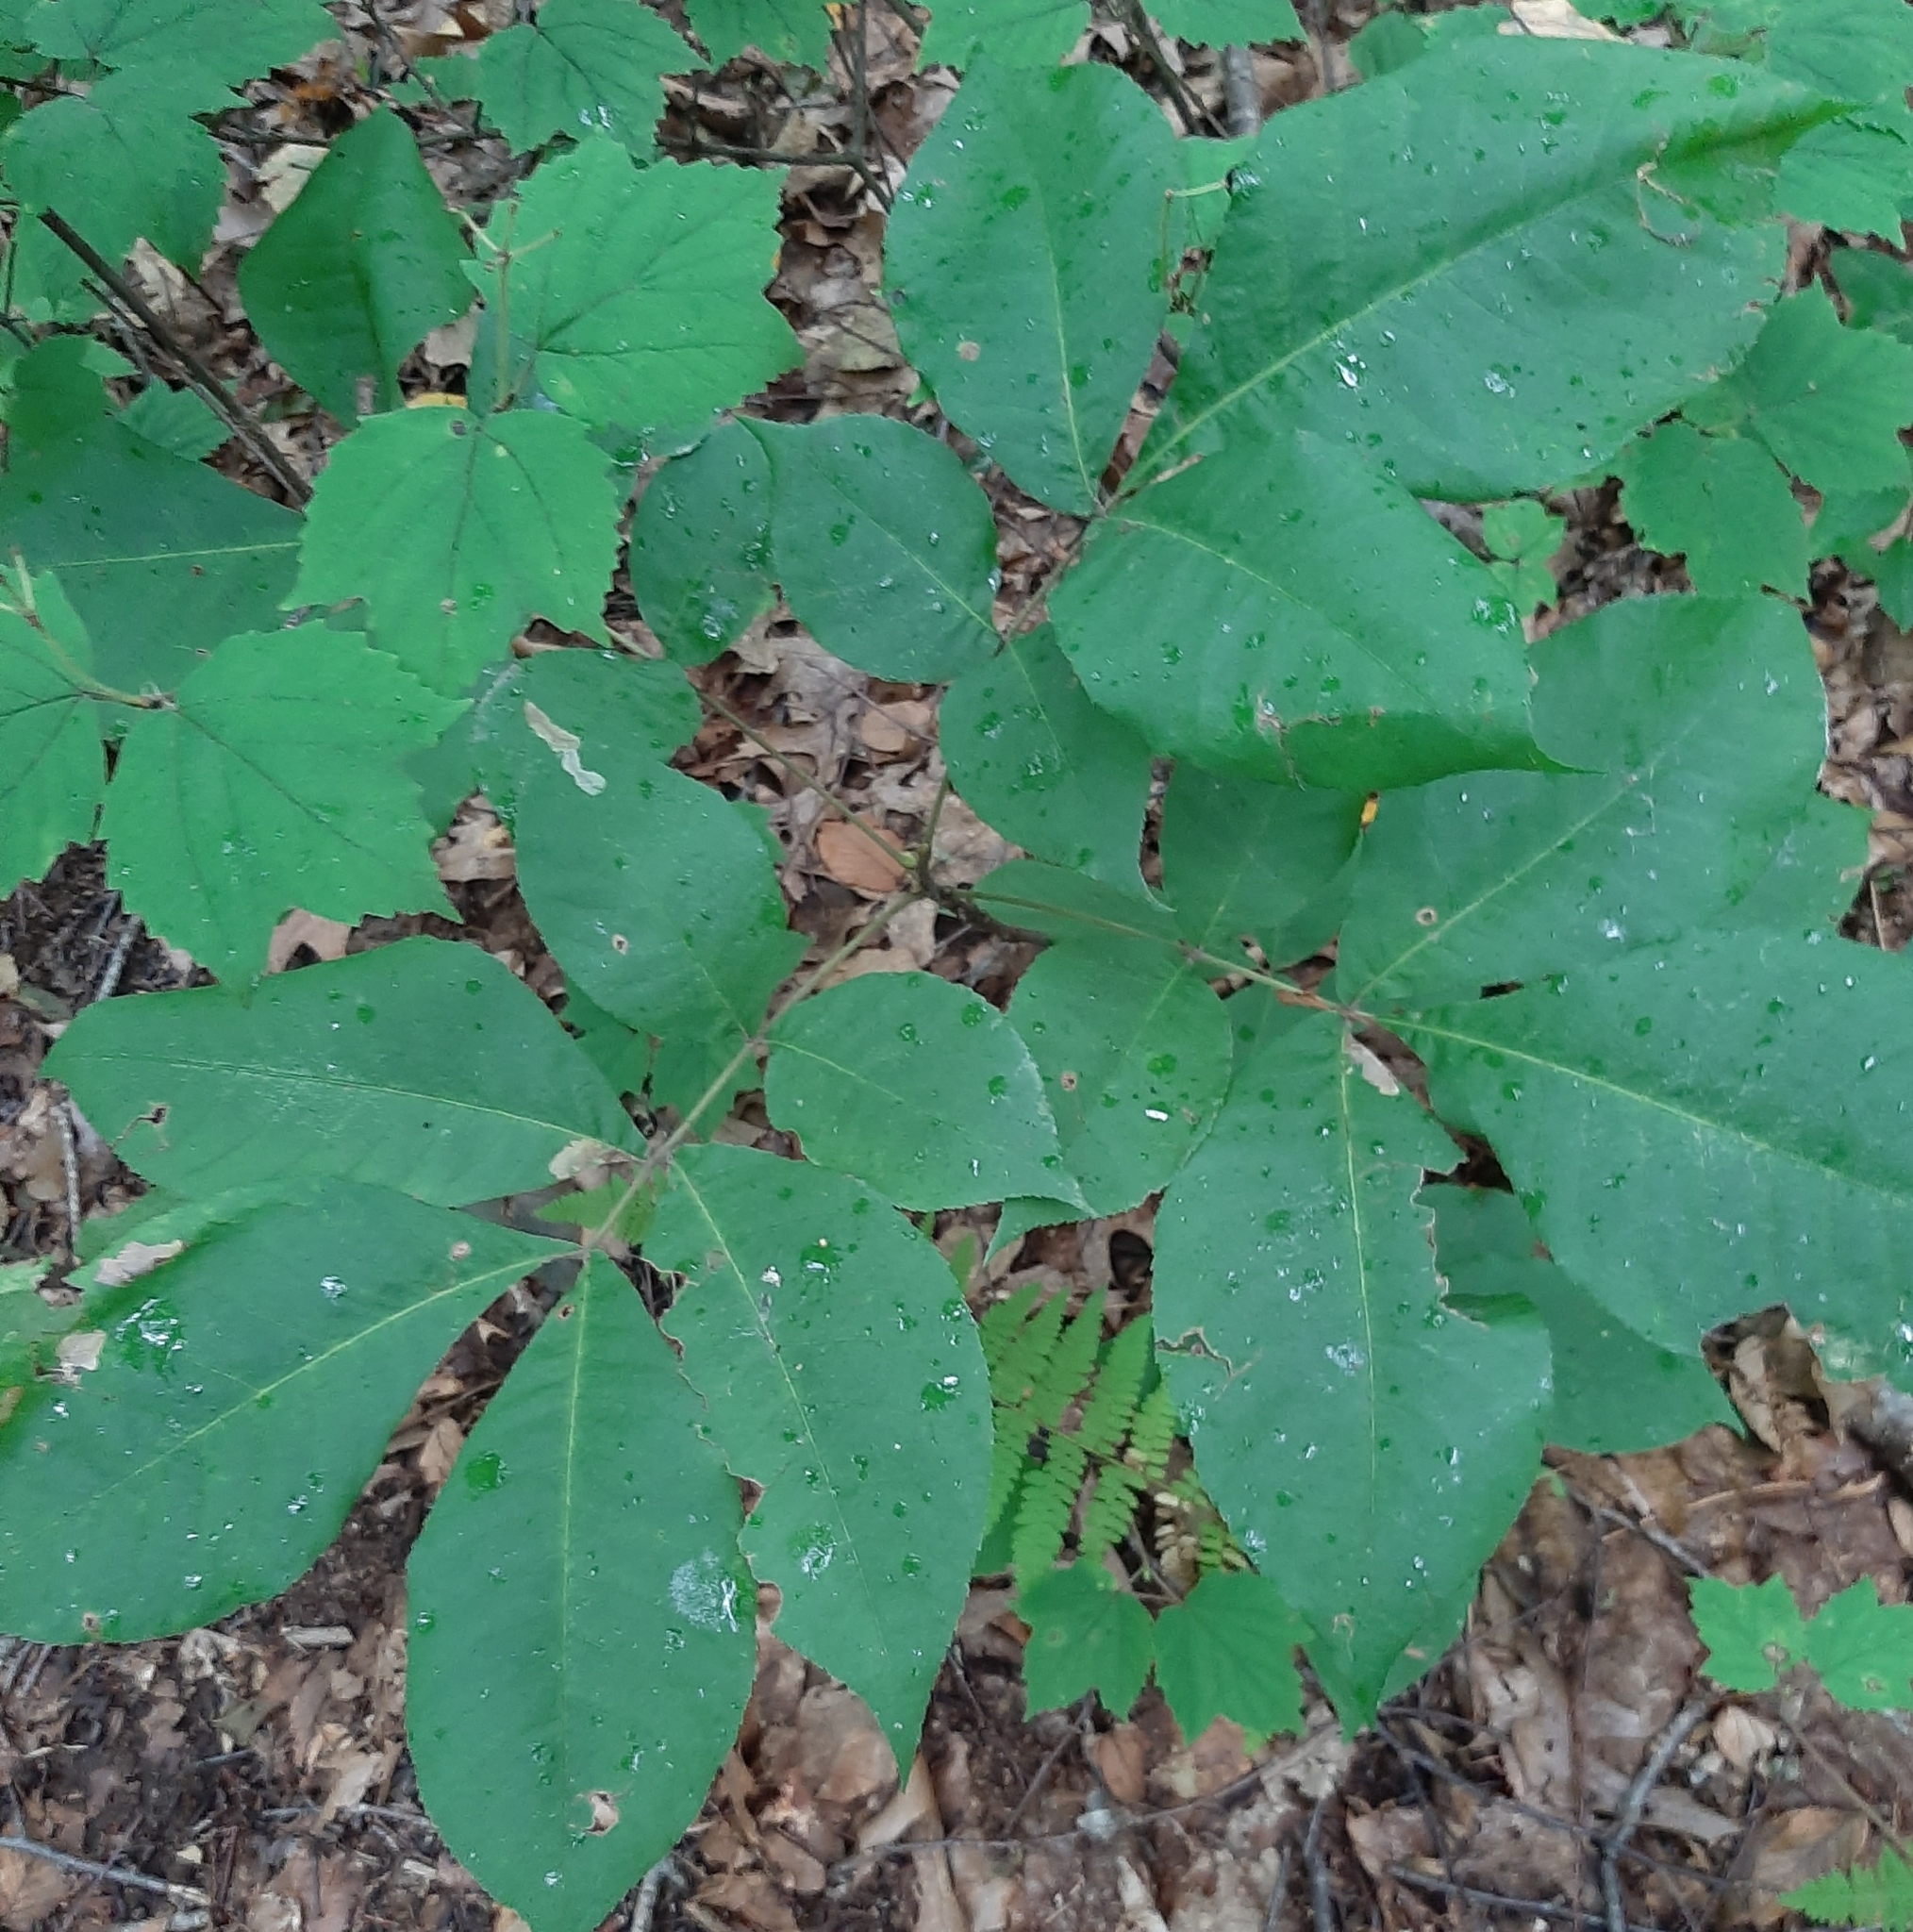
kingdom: Animalia
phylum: Arthropoda
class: Insecta
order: Lepidoptera
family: Gracillariidae
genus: Cameraria
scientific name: Cameraria caryaefoliella
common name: Pecan leafminer moth
